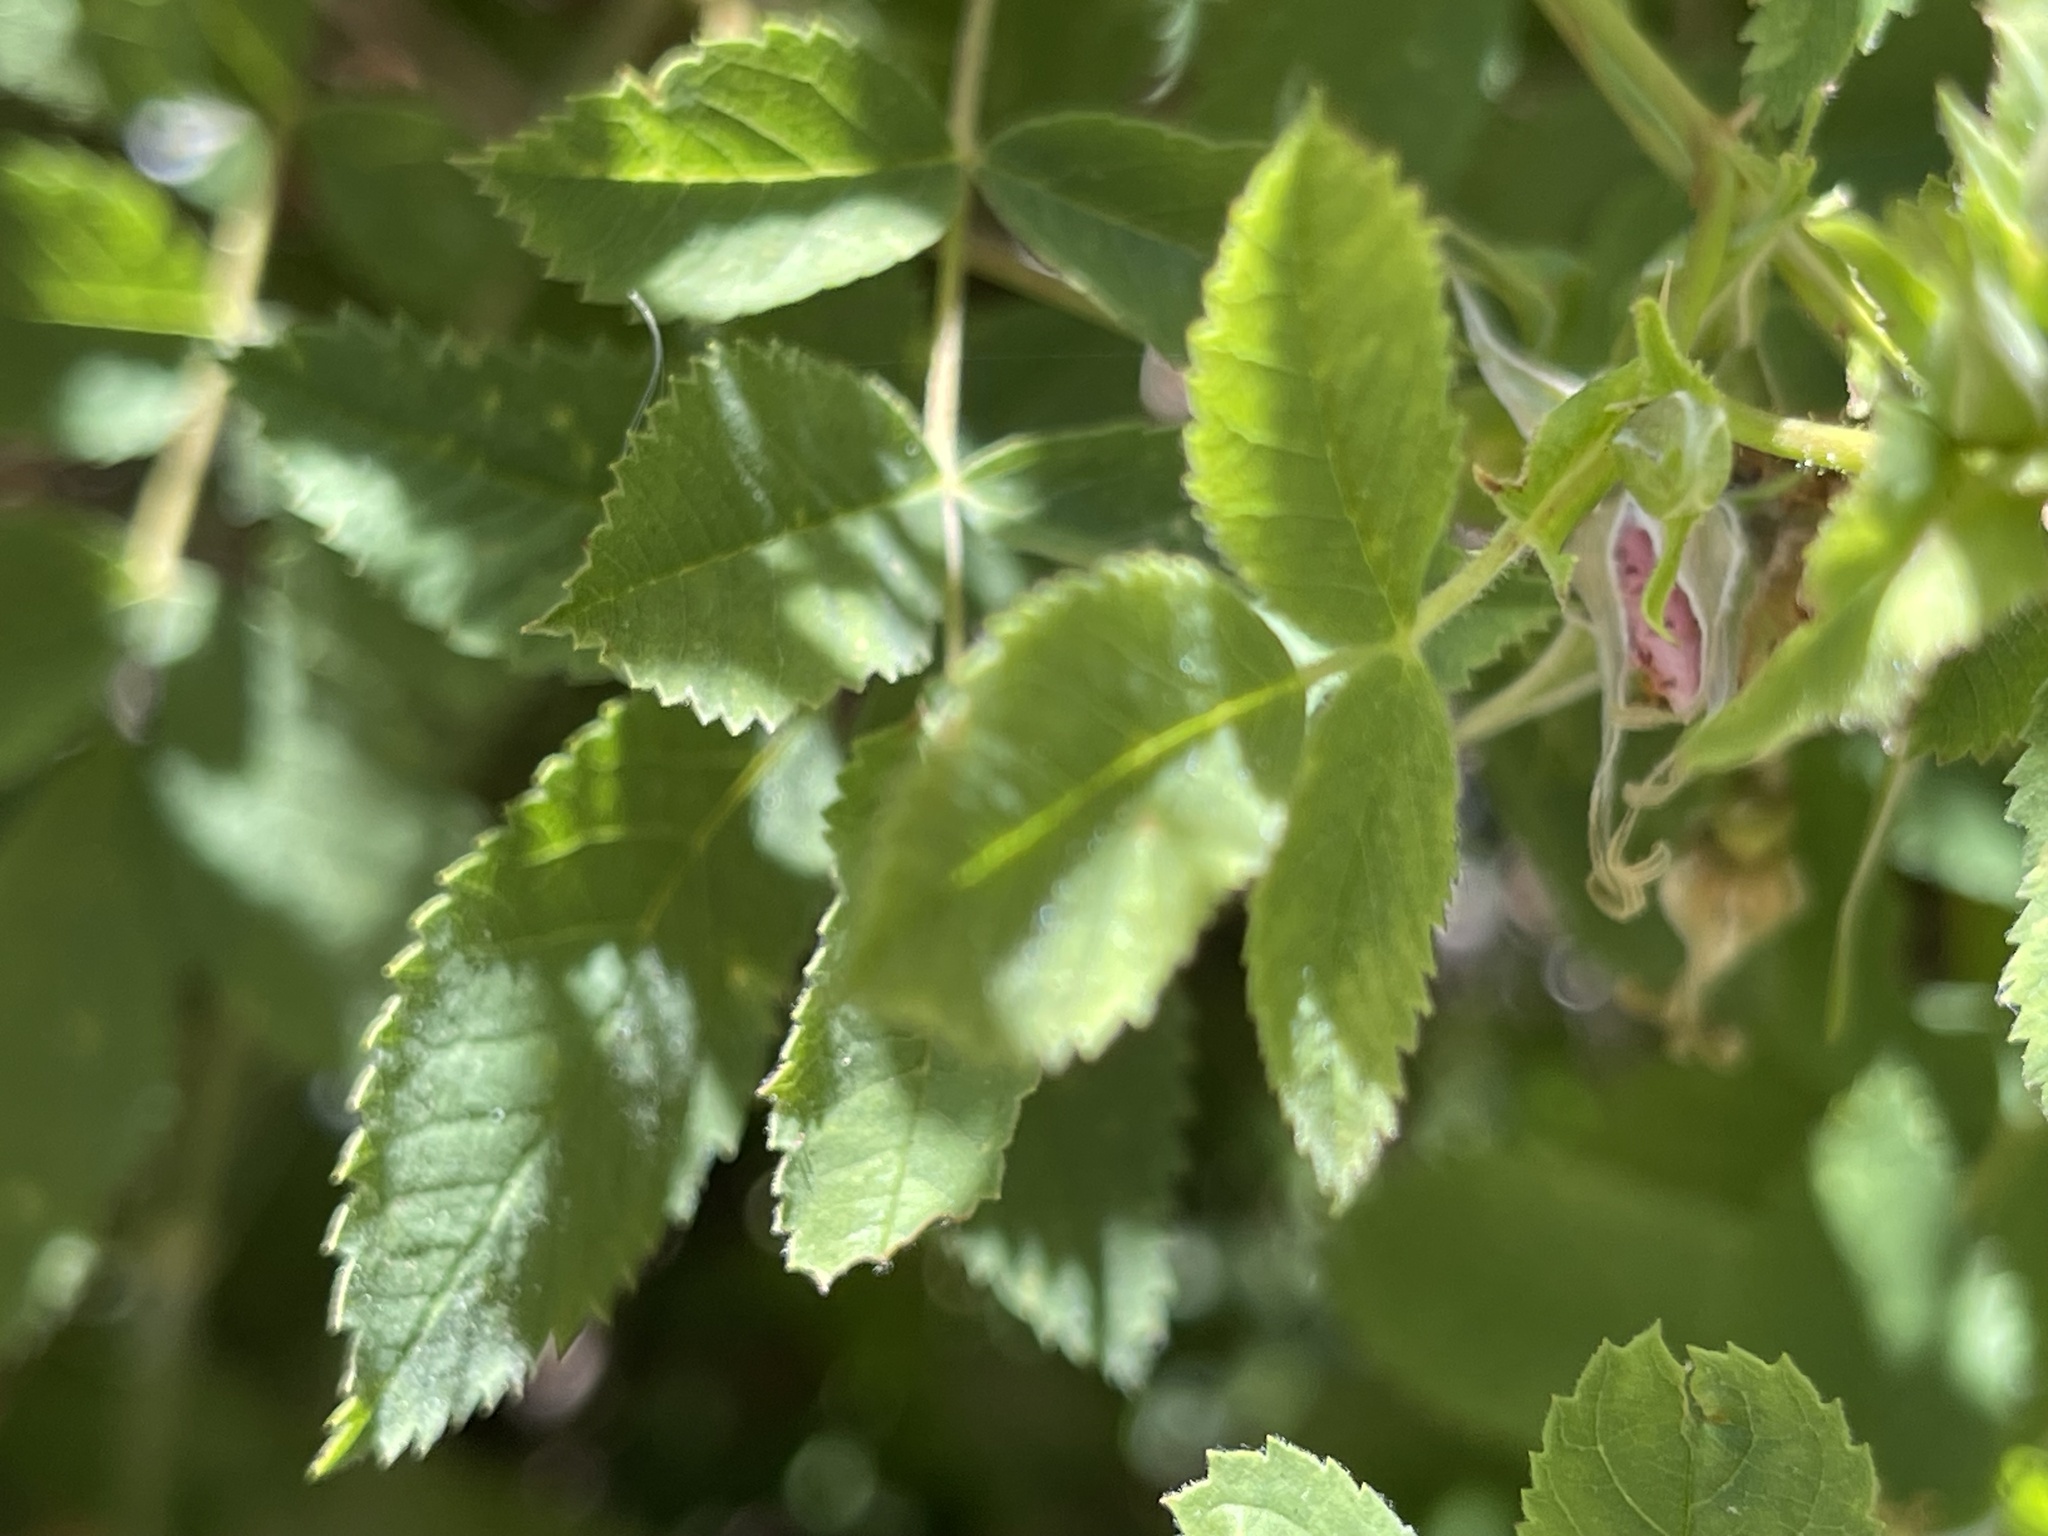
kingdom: Plantae
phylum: Tracheophyta
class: Magnoliopsida
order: Rosales
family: Rosaceae
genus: Rosa
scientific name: Rosa californica
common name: California rose
